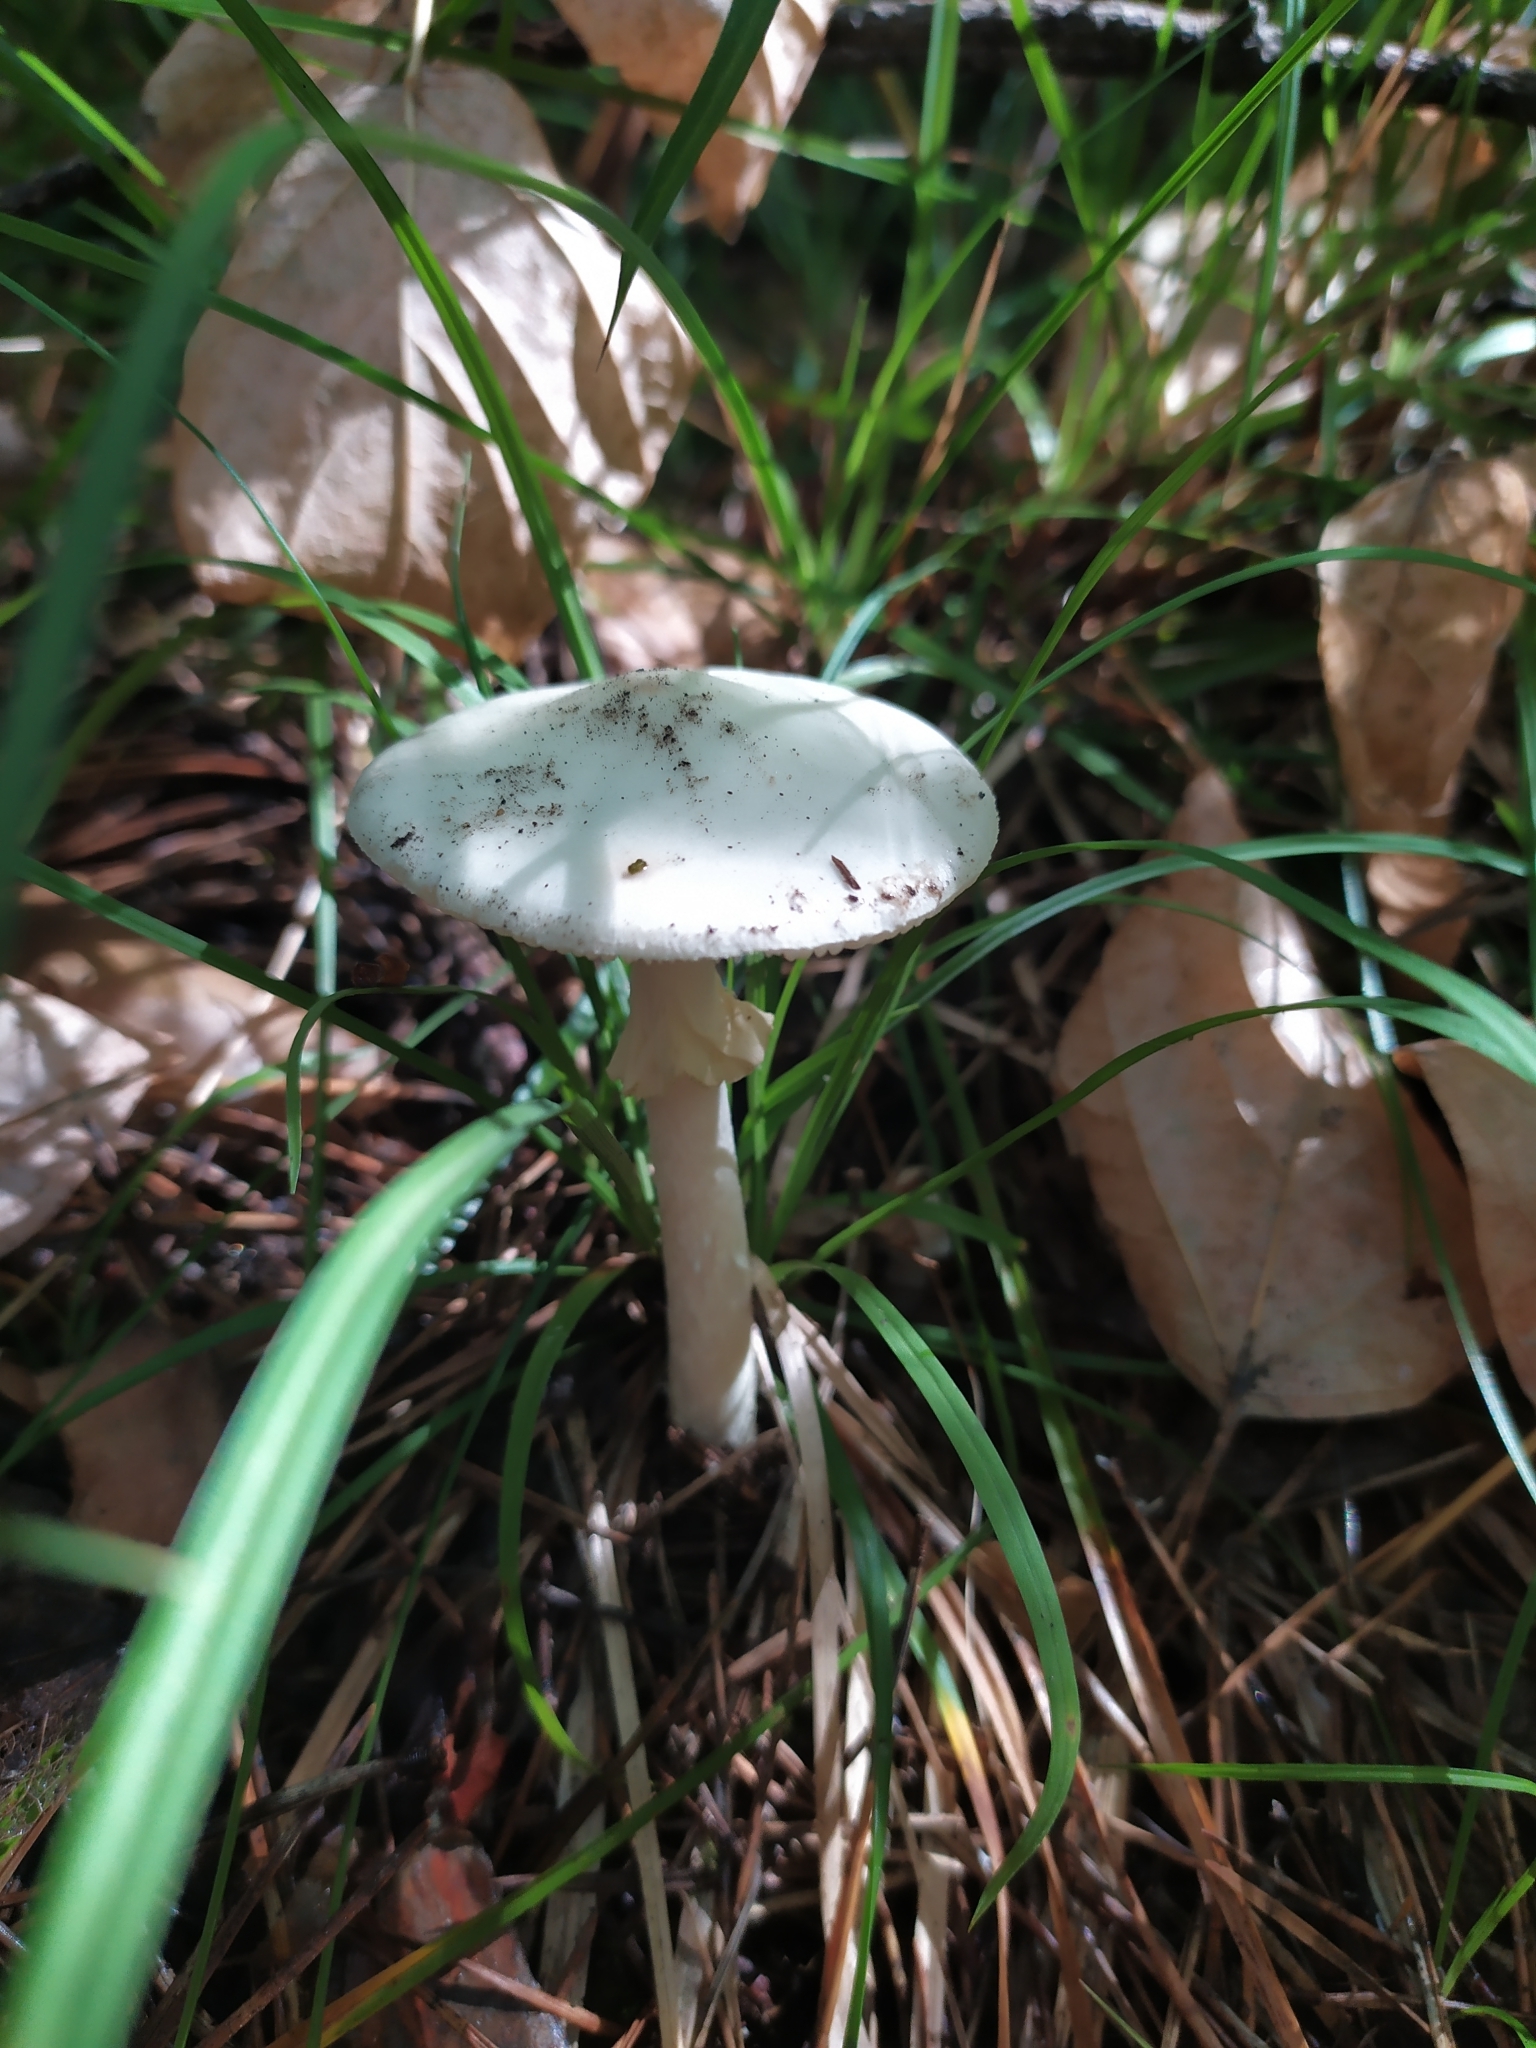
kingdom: Fungi
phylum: Basidiomycota
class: Agaricomycetes
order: Agaricales
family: Amanitaceae
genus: Amanita
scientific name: Amanita citrina
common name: False death-cap
